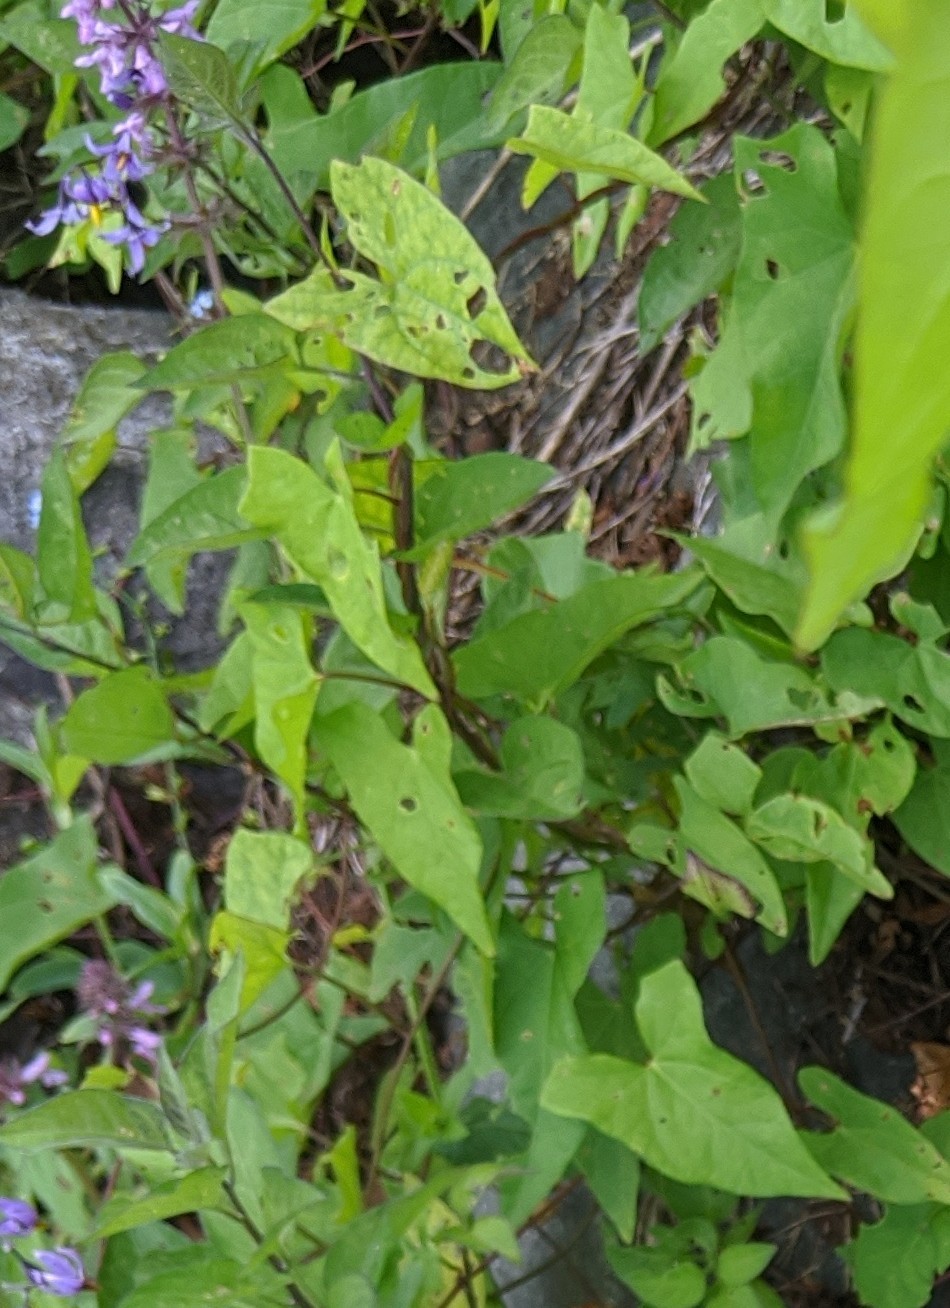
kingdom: Plantae
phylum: Tracheophyta
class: Magnoliopsida
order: Solanales
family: Solanaceae
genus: Solanum
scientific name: Solanum dulcamara
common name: Climbing nightshade
